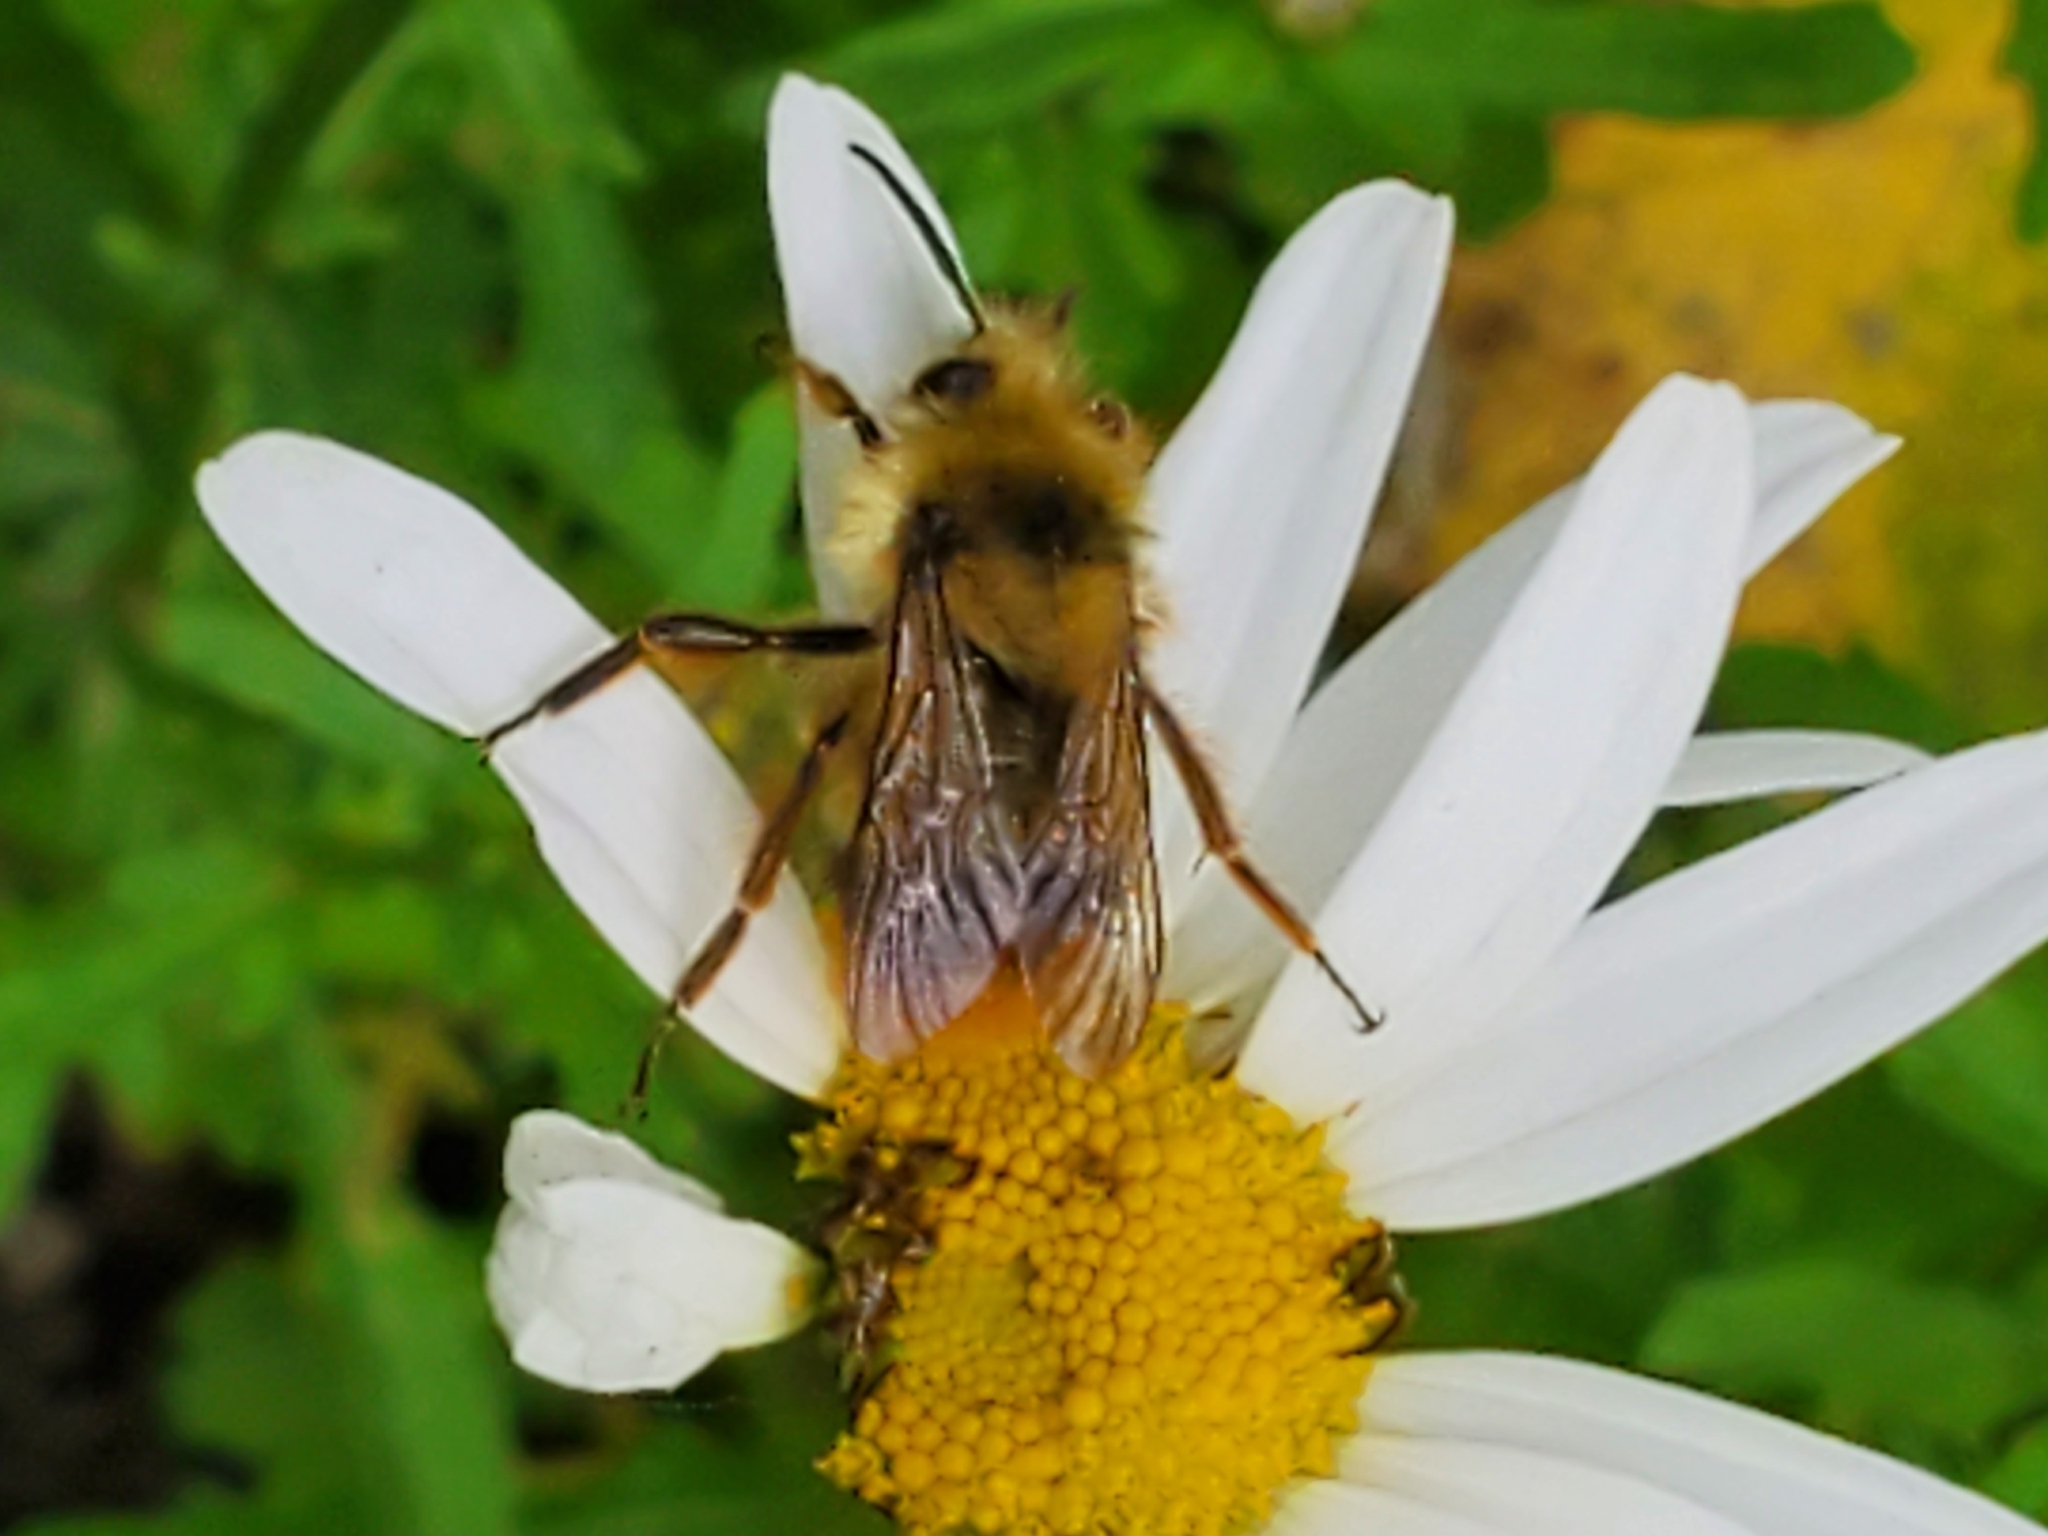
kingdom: Animalia
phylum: Arthropoda
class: Insecta
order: Hymenoptera
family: Apidae
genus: Bombus
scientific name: Bombus mixtus
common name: Fuzzy-horned bumble bee
